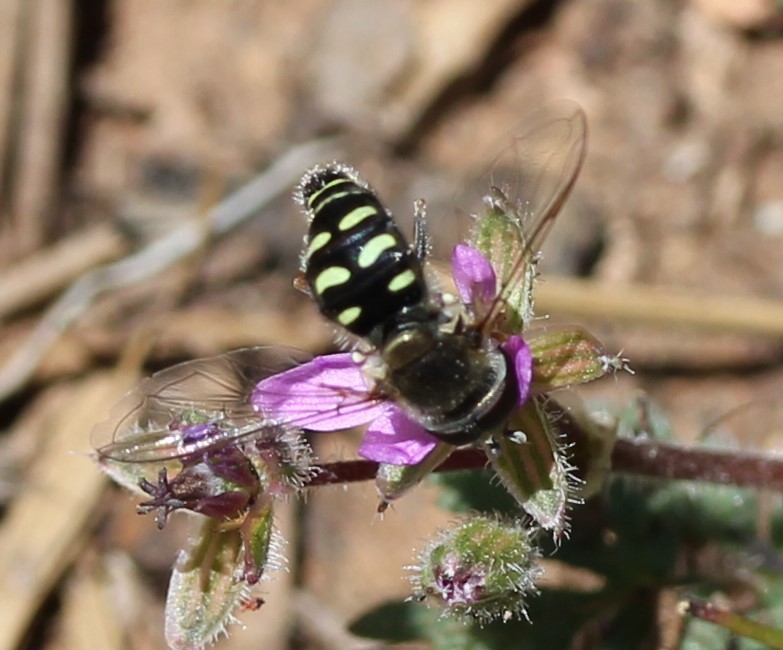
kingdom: Animalia
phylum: Arthropoda
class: Insecta
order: Diptera
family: Syrphidae
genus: Eupeodes
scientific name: Eupeodes volucris
